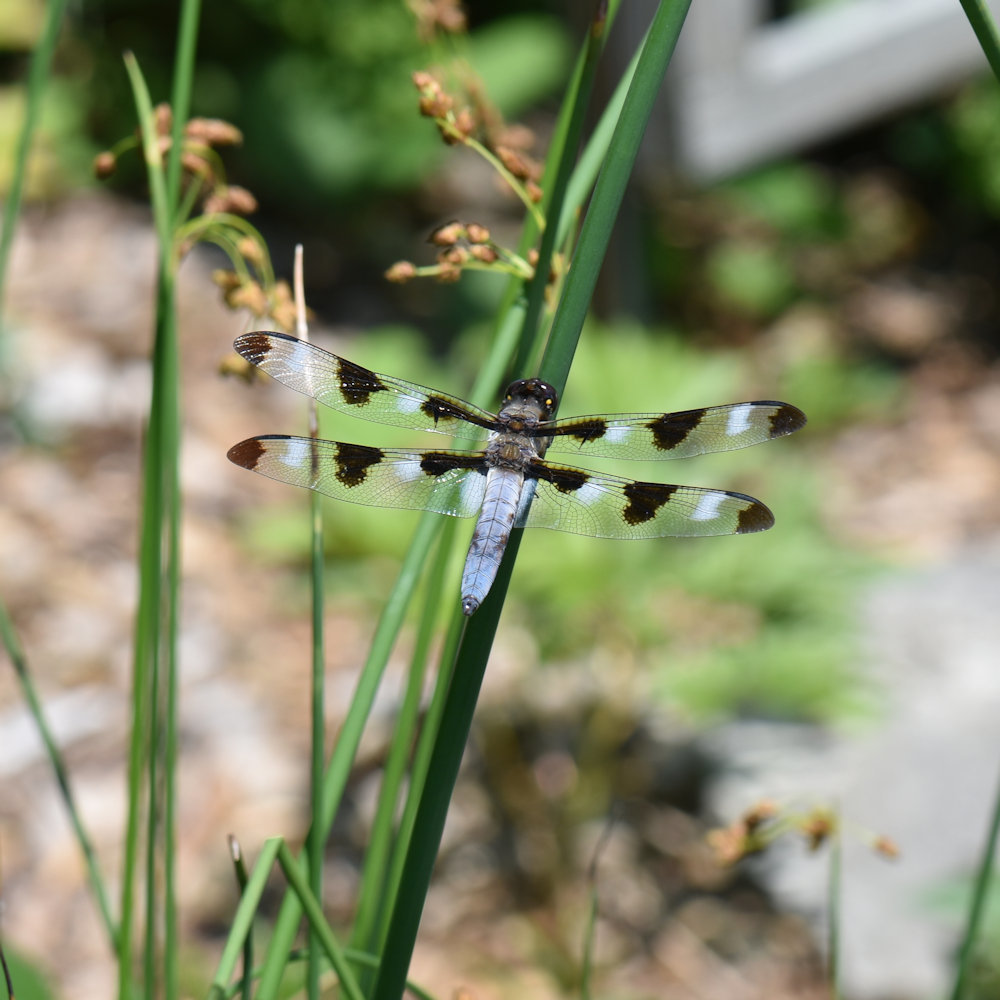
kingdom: Animalia
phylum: Arthropoda
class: Insecta
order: Odonata
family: Libellulidae
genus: Libellula
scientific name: Libellula pulchella
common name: Twelve-spotted skimmer
